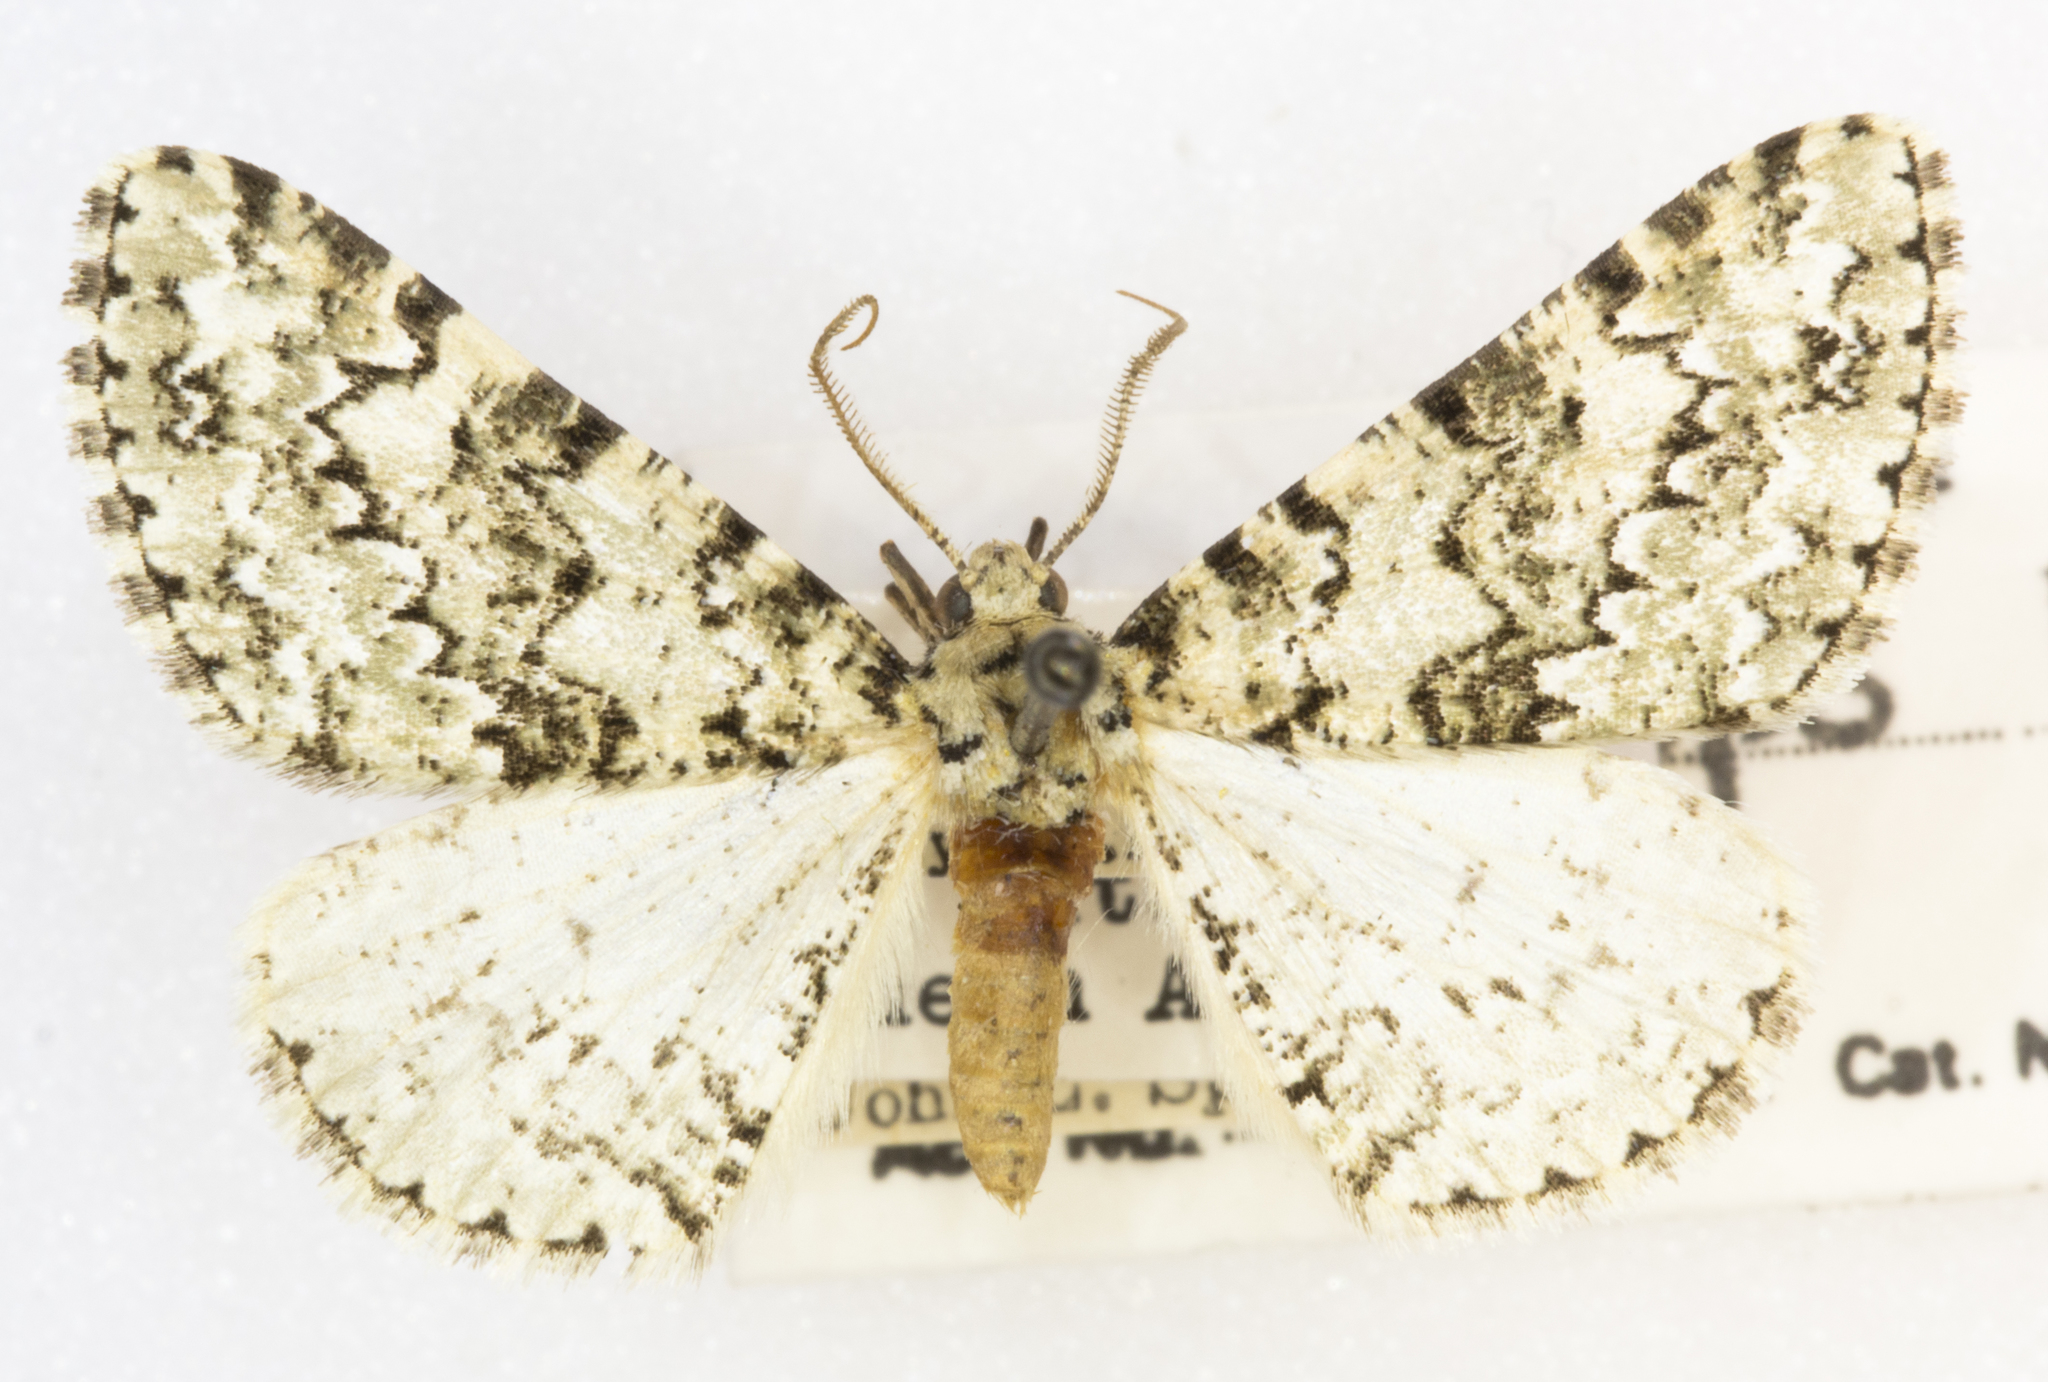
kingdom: Animalia
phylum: Arthropoda
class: Insecta
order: Lepidoptera
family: Geometridae
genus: Tracheops
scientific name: Tracheops bolteri
